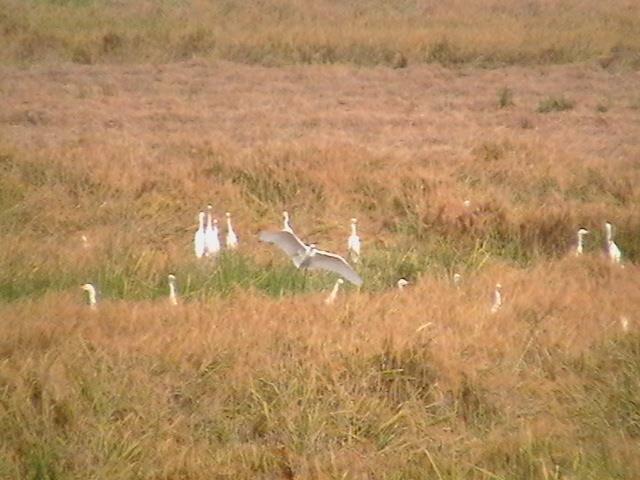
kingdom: Animalia
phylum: Chordata
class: Aves
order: Pelecaniformes
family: Ardeidae
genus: Bubulcus
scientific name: Bubulcus coromandus
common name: Eastern cattle egret
